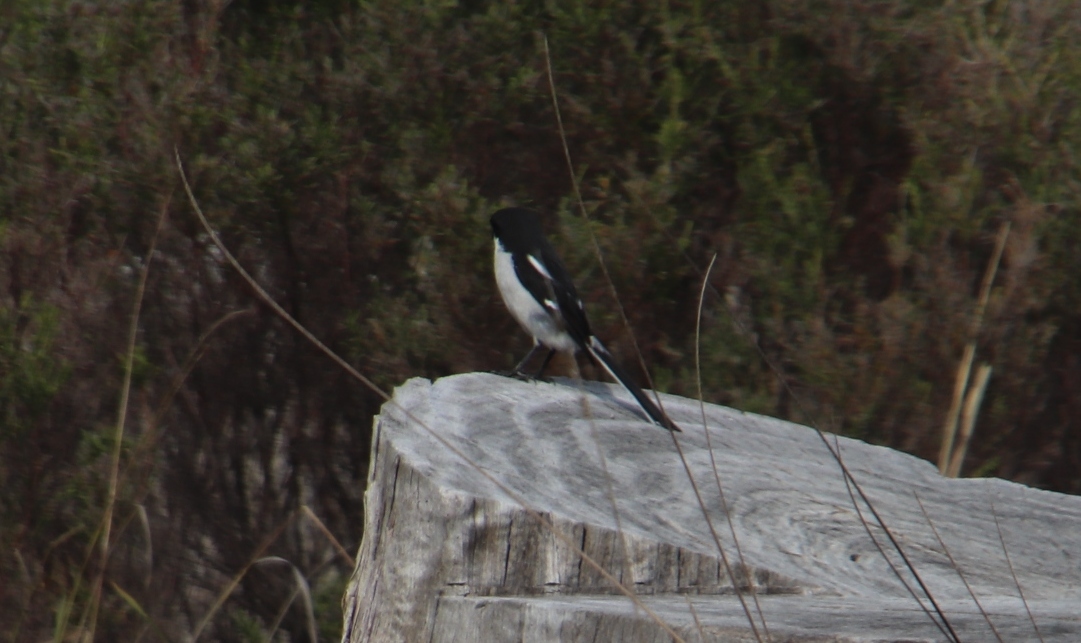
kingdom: Animalia
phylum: Chordata
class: Aves
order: Passeriformes
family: Laniidae
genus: Lanius
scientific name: Lanius collaris
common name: Southern fiscal
